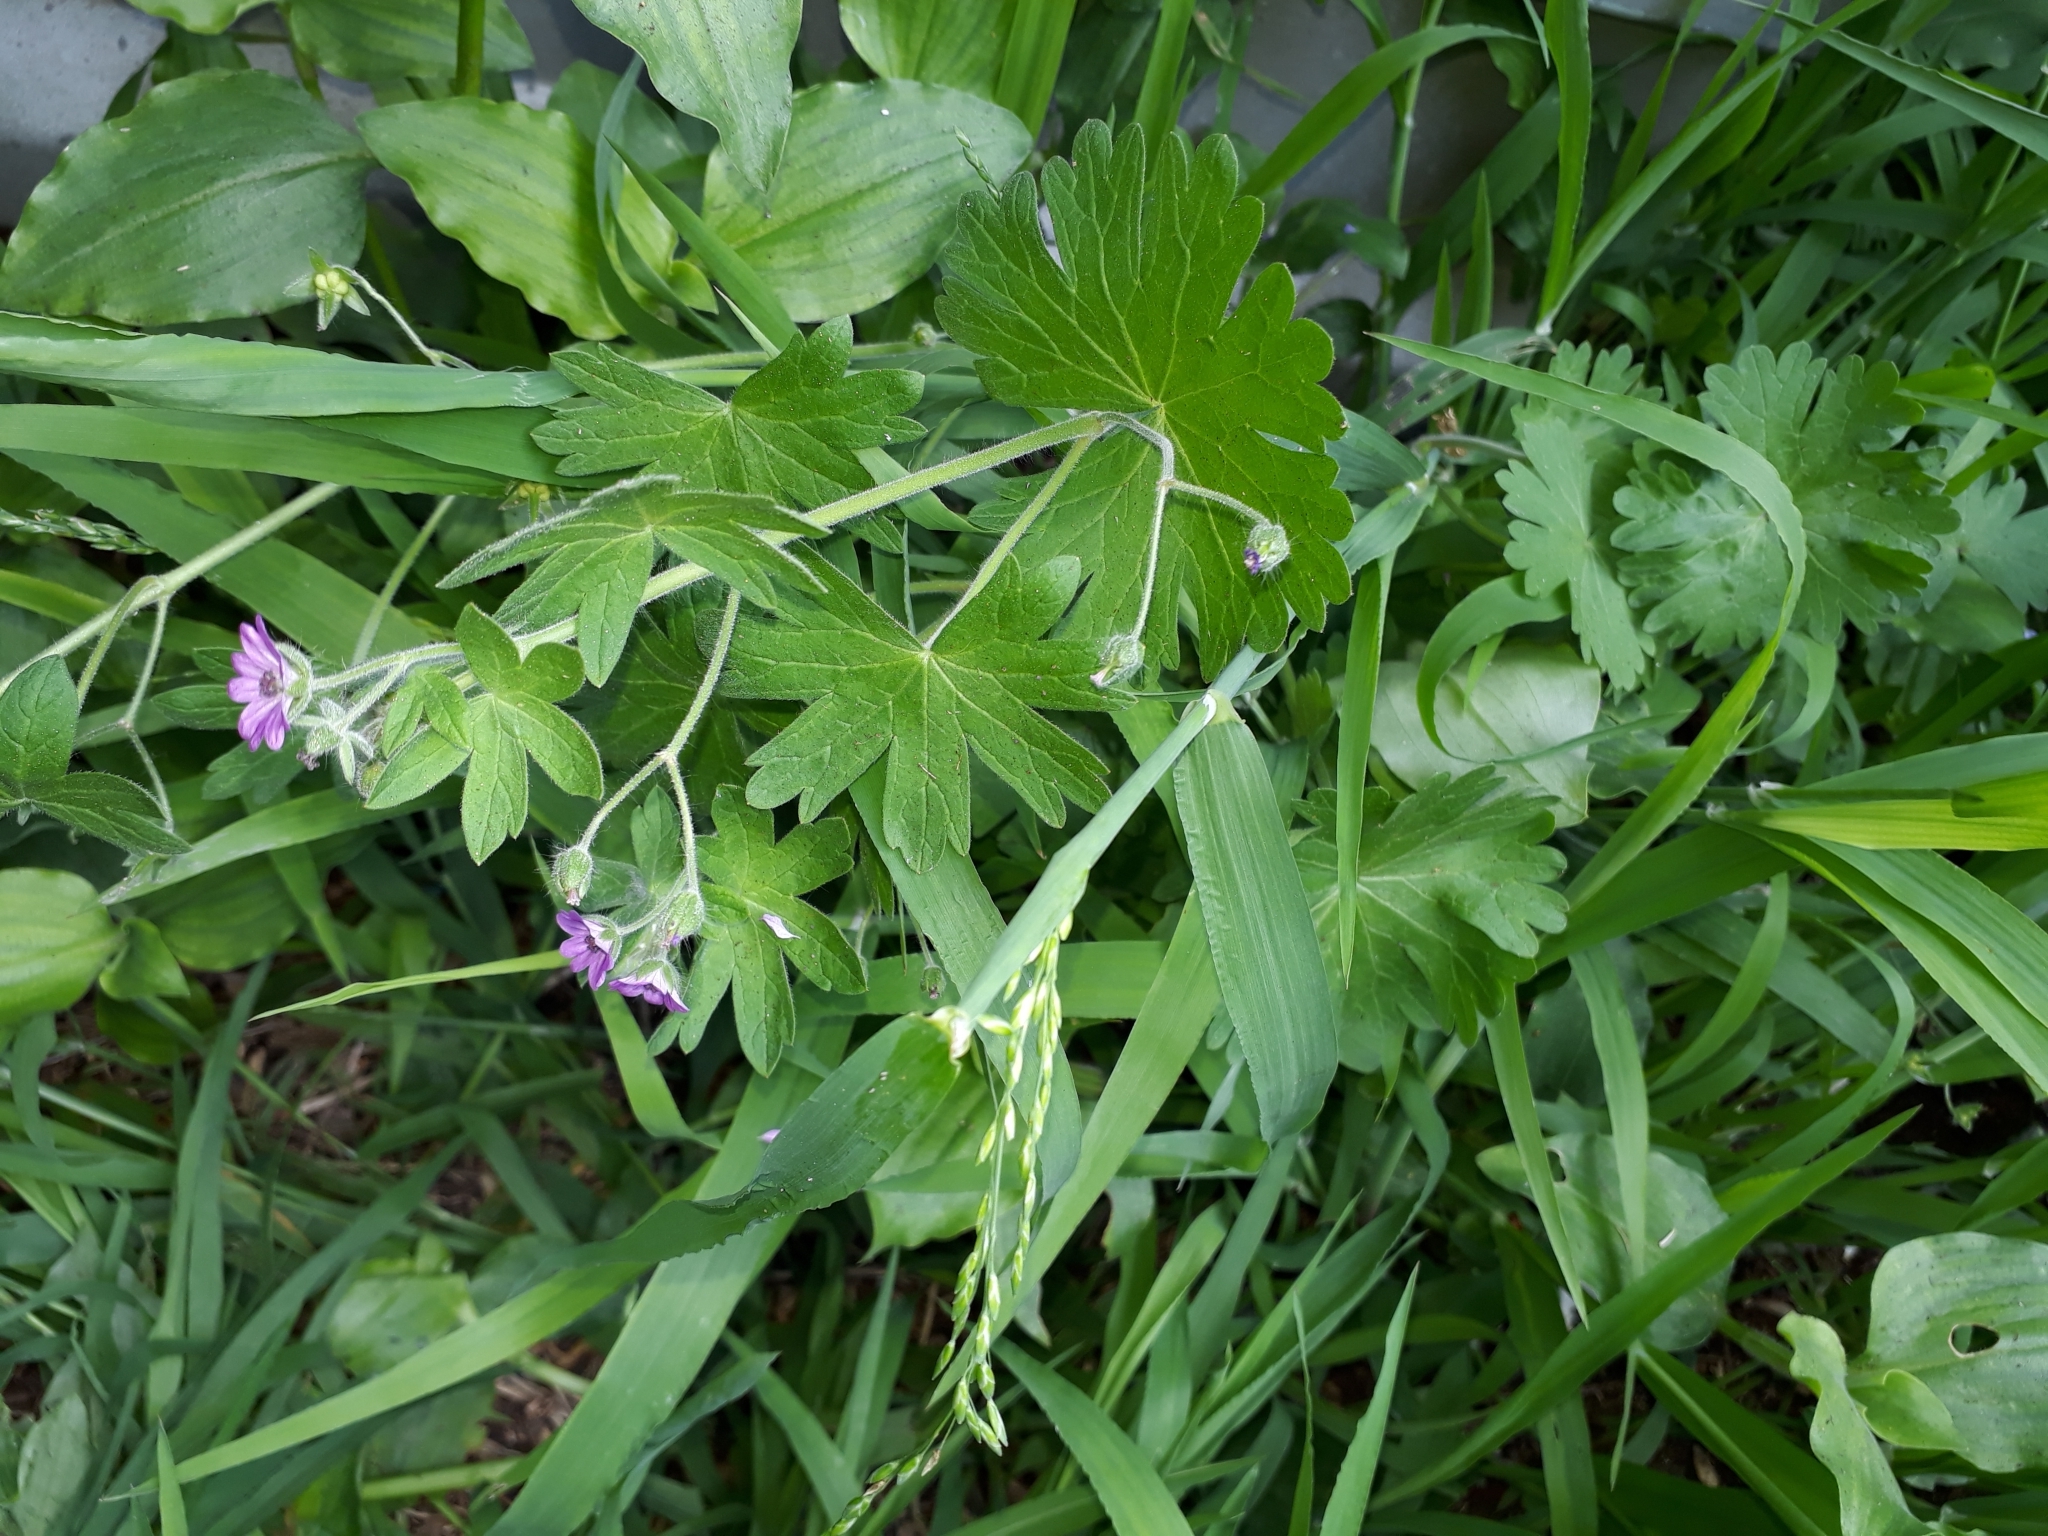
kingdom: Plantae
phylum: Tracheophyta
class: Magnoliopsida
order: Geraniales
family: Geraniaceae
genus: Geranium
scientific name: Geranium molle
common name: Dove's-foot crane's-bill
